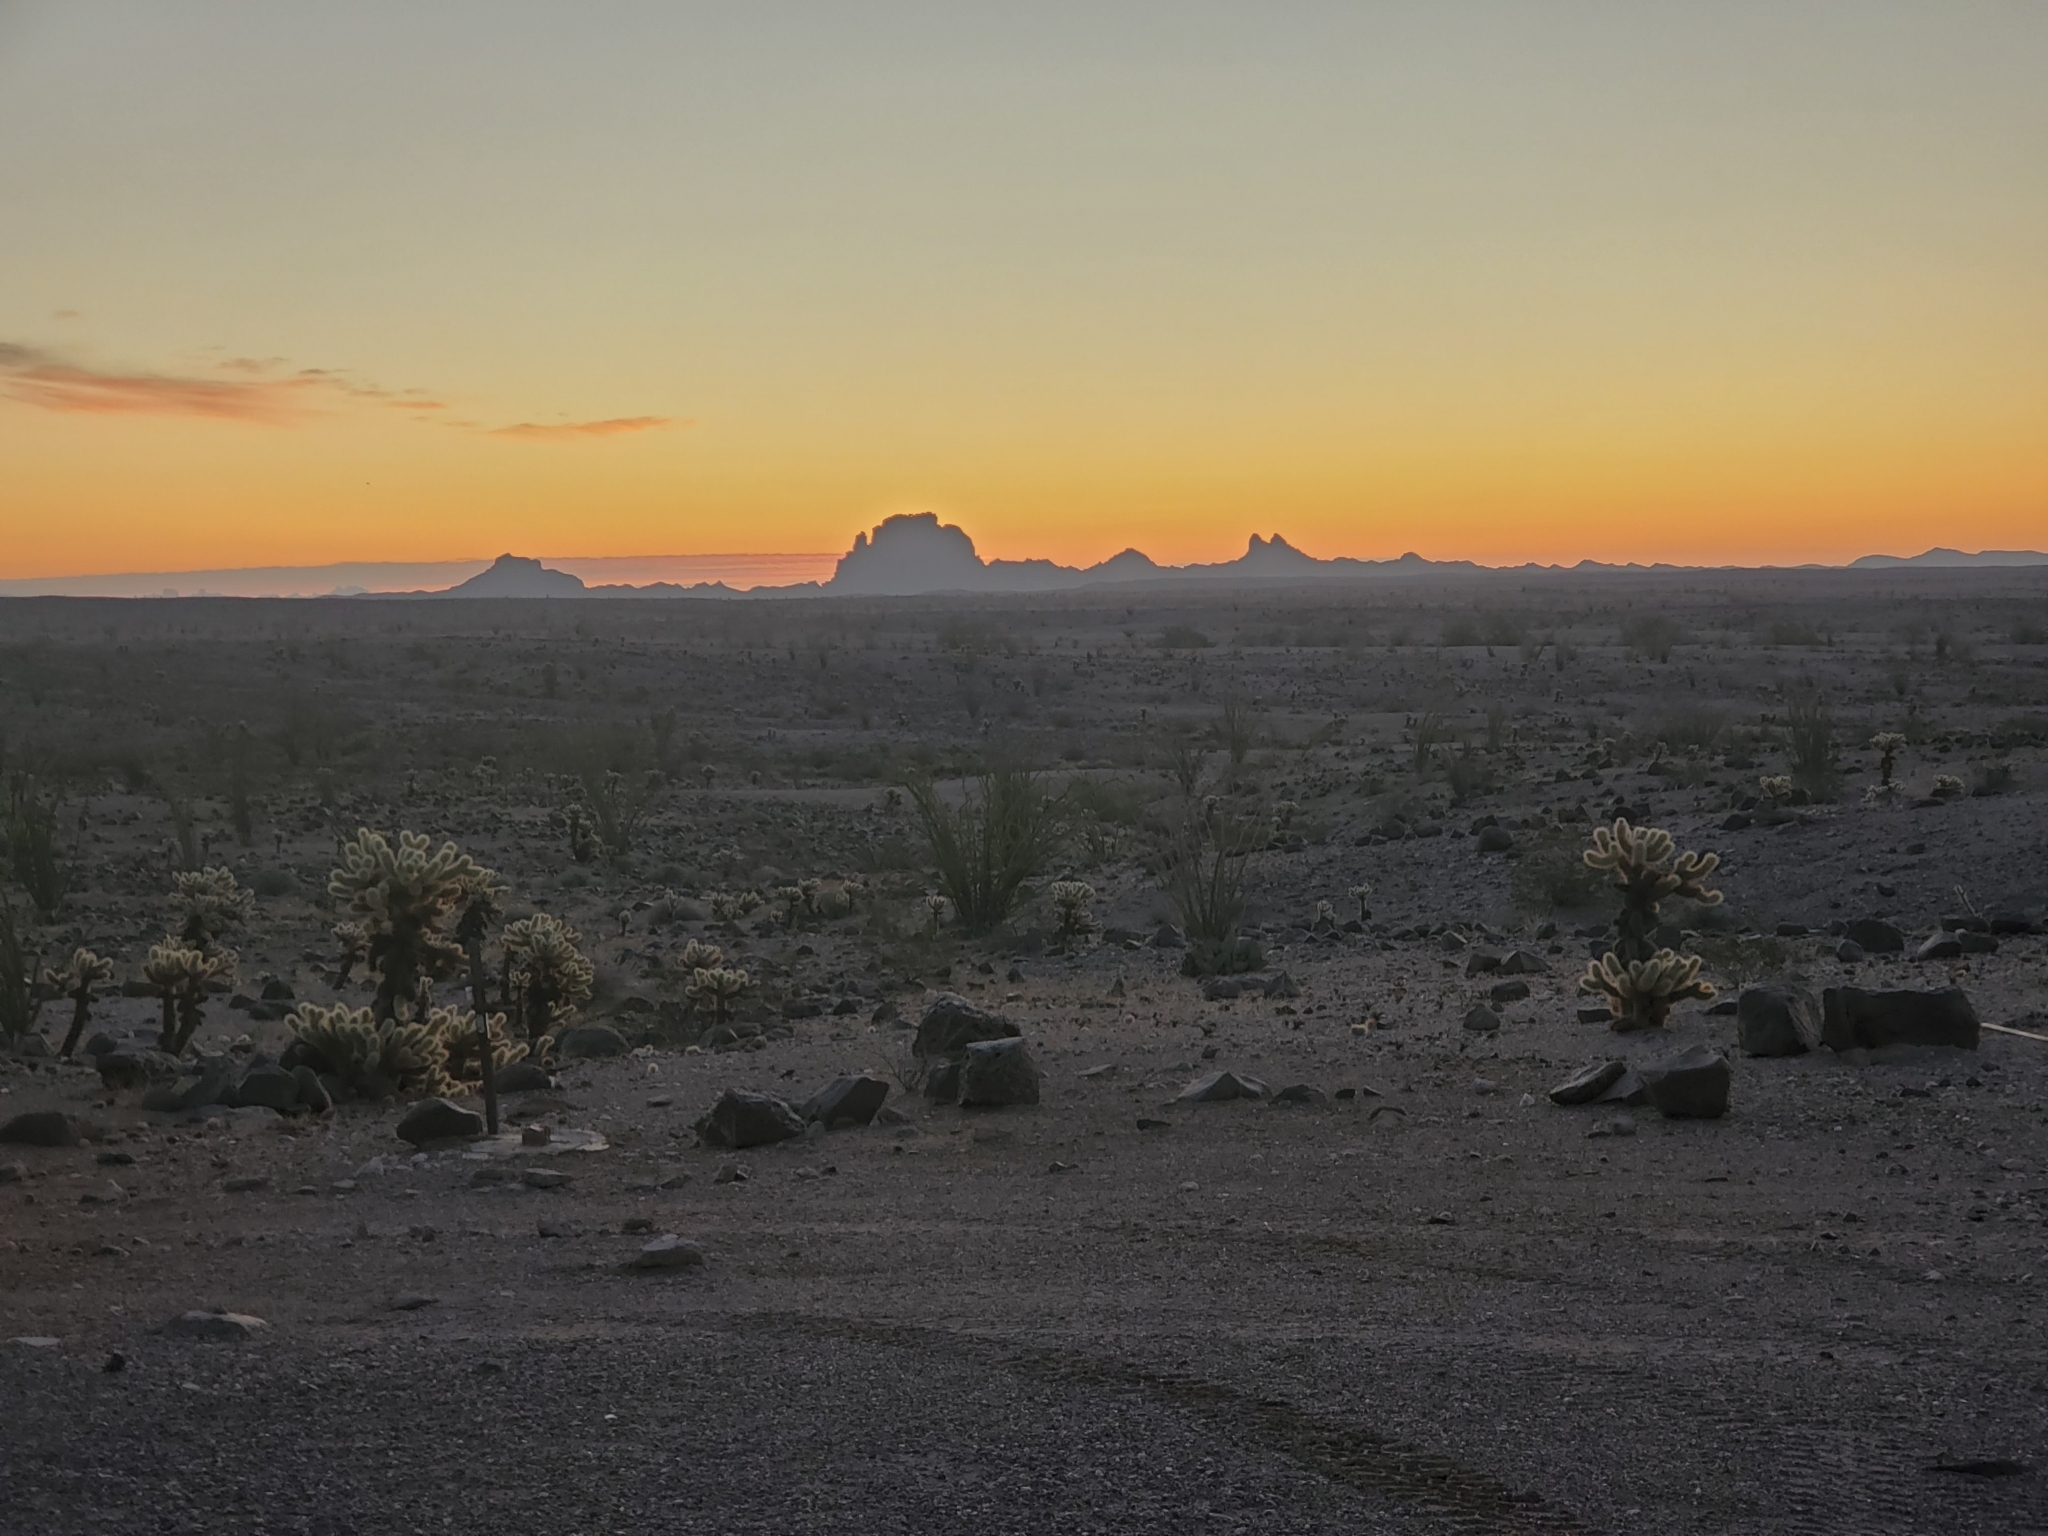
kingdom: Plantae
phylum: Tracheophyta
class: Magnoliopsida
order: Caryophyllales
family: Cactaceae
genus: Cylindropuntia
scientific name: Cylindropuntia fosbergii
